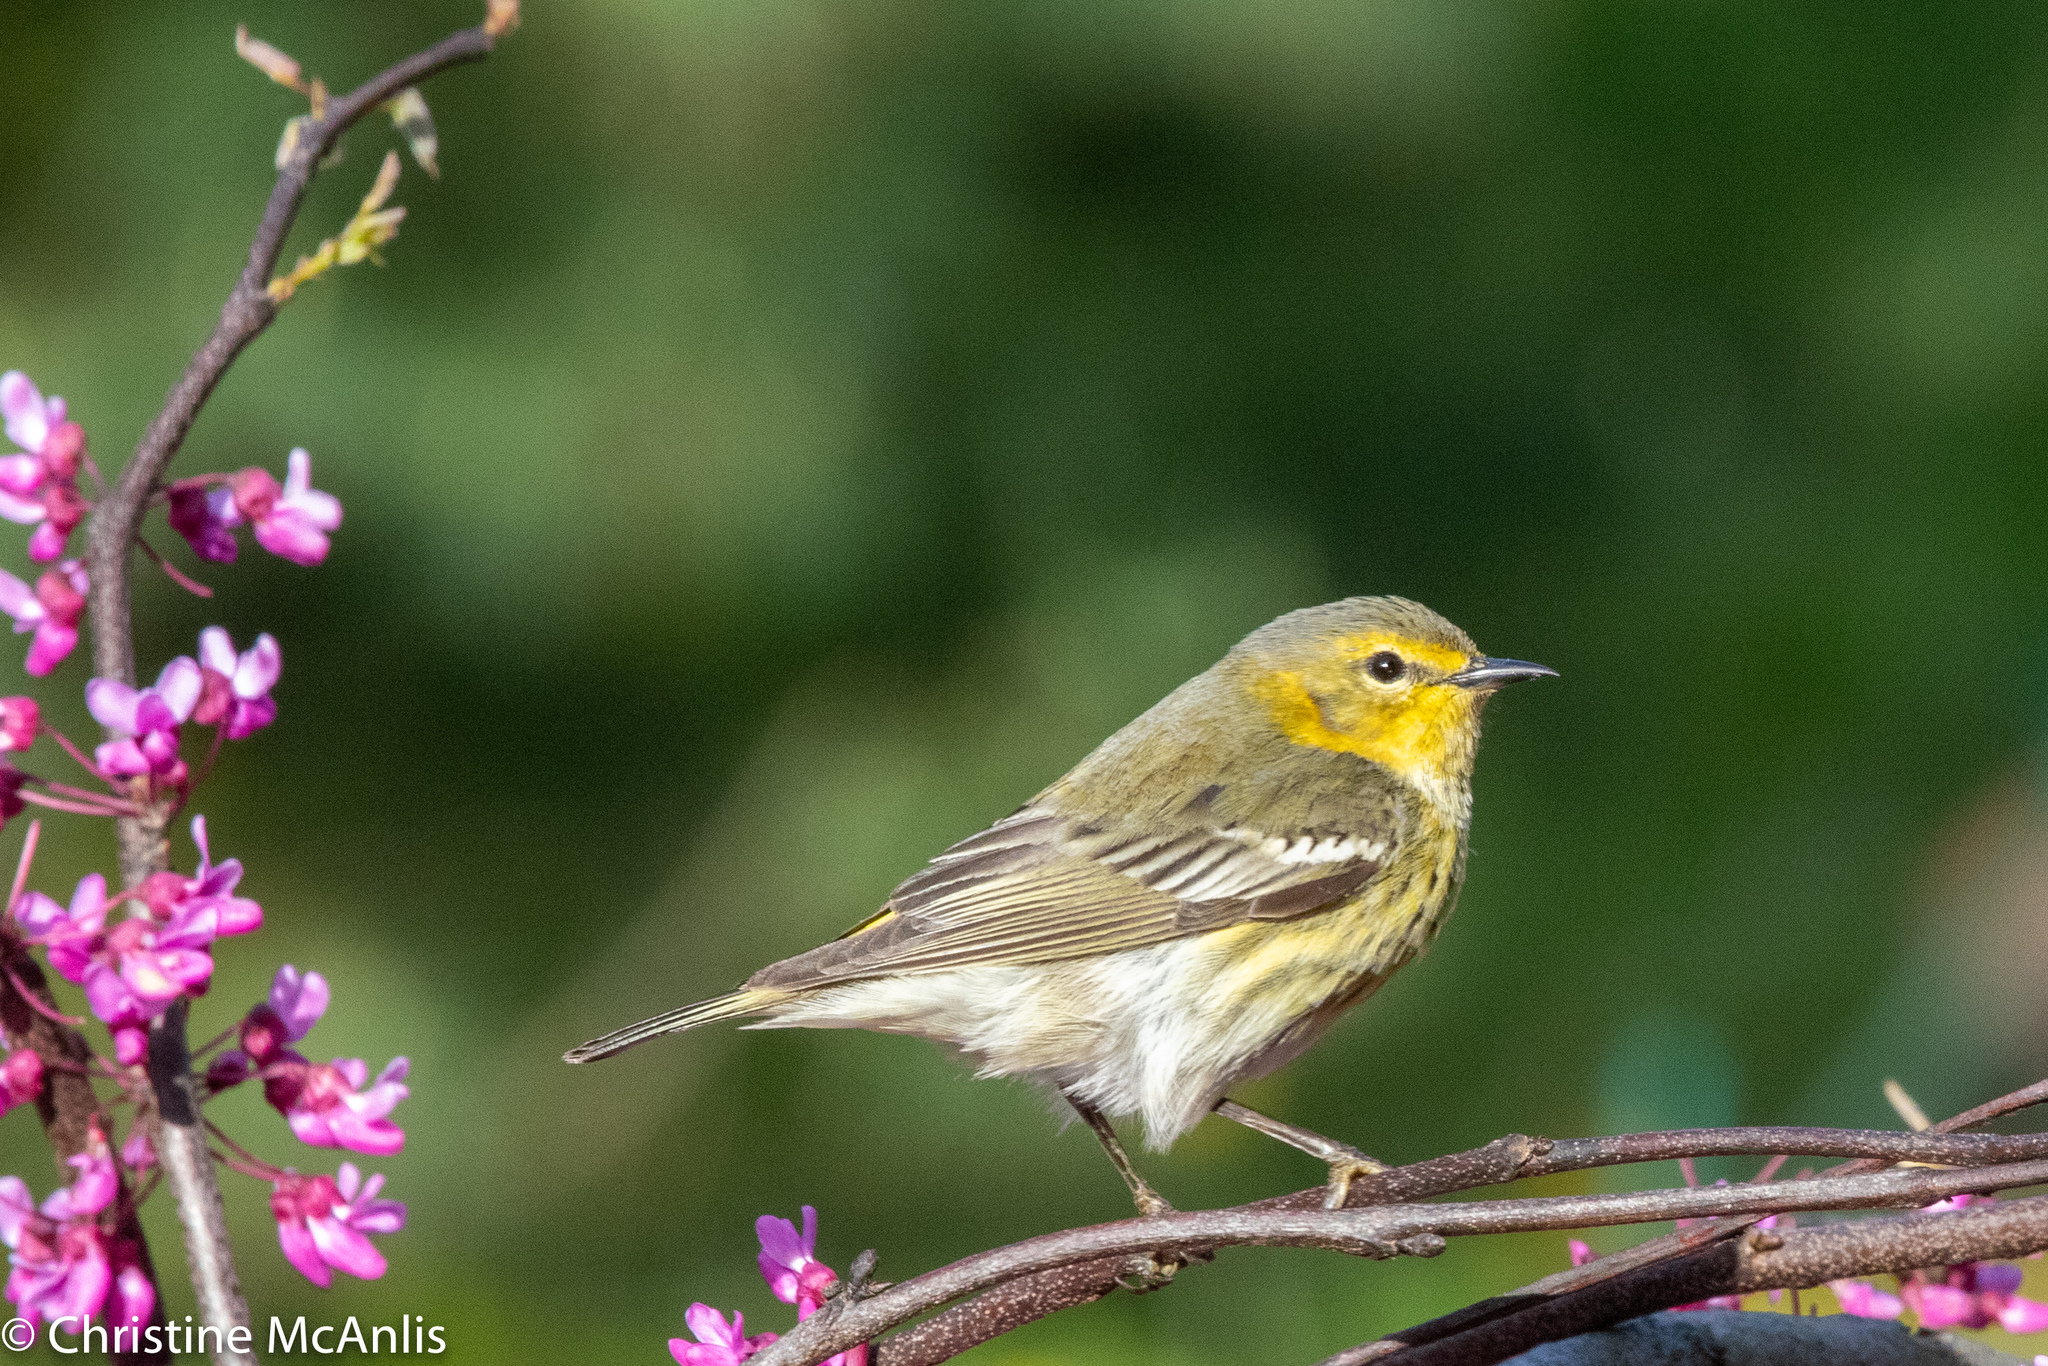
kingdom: Animalia
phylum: Chordata
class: Aves
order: Passeriformes
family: Parulidae
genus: Setophaga
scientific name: Setophaga tigrina
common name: Cape may warbler
